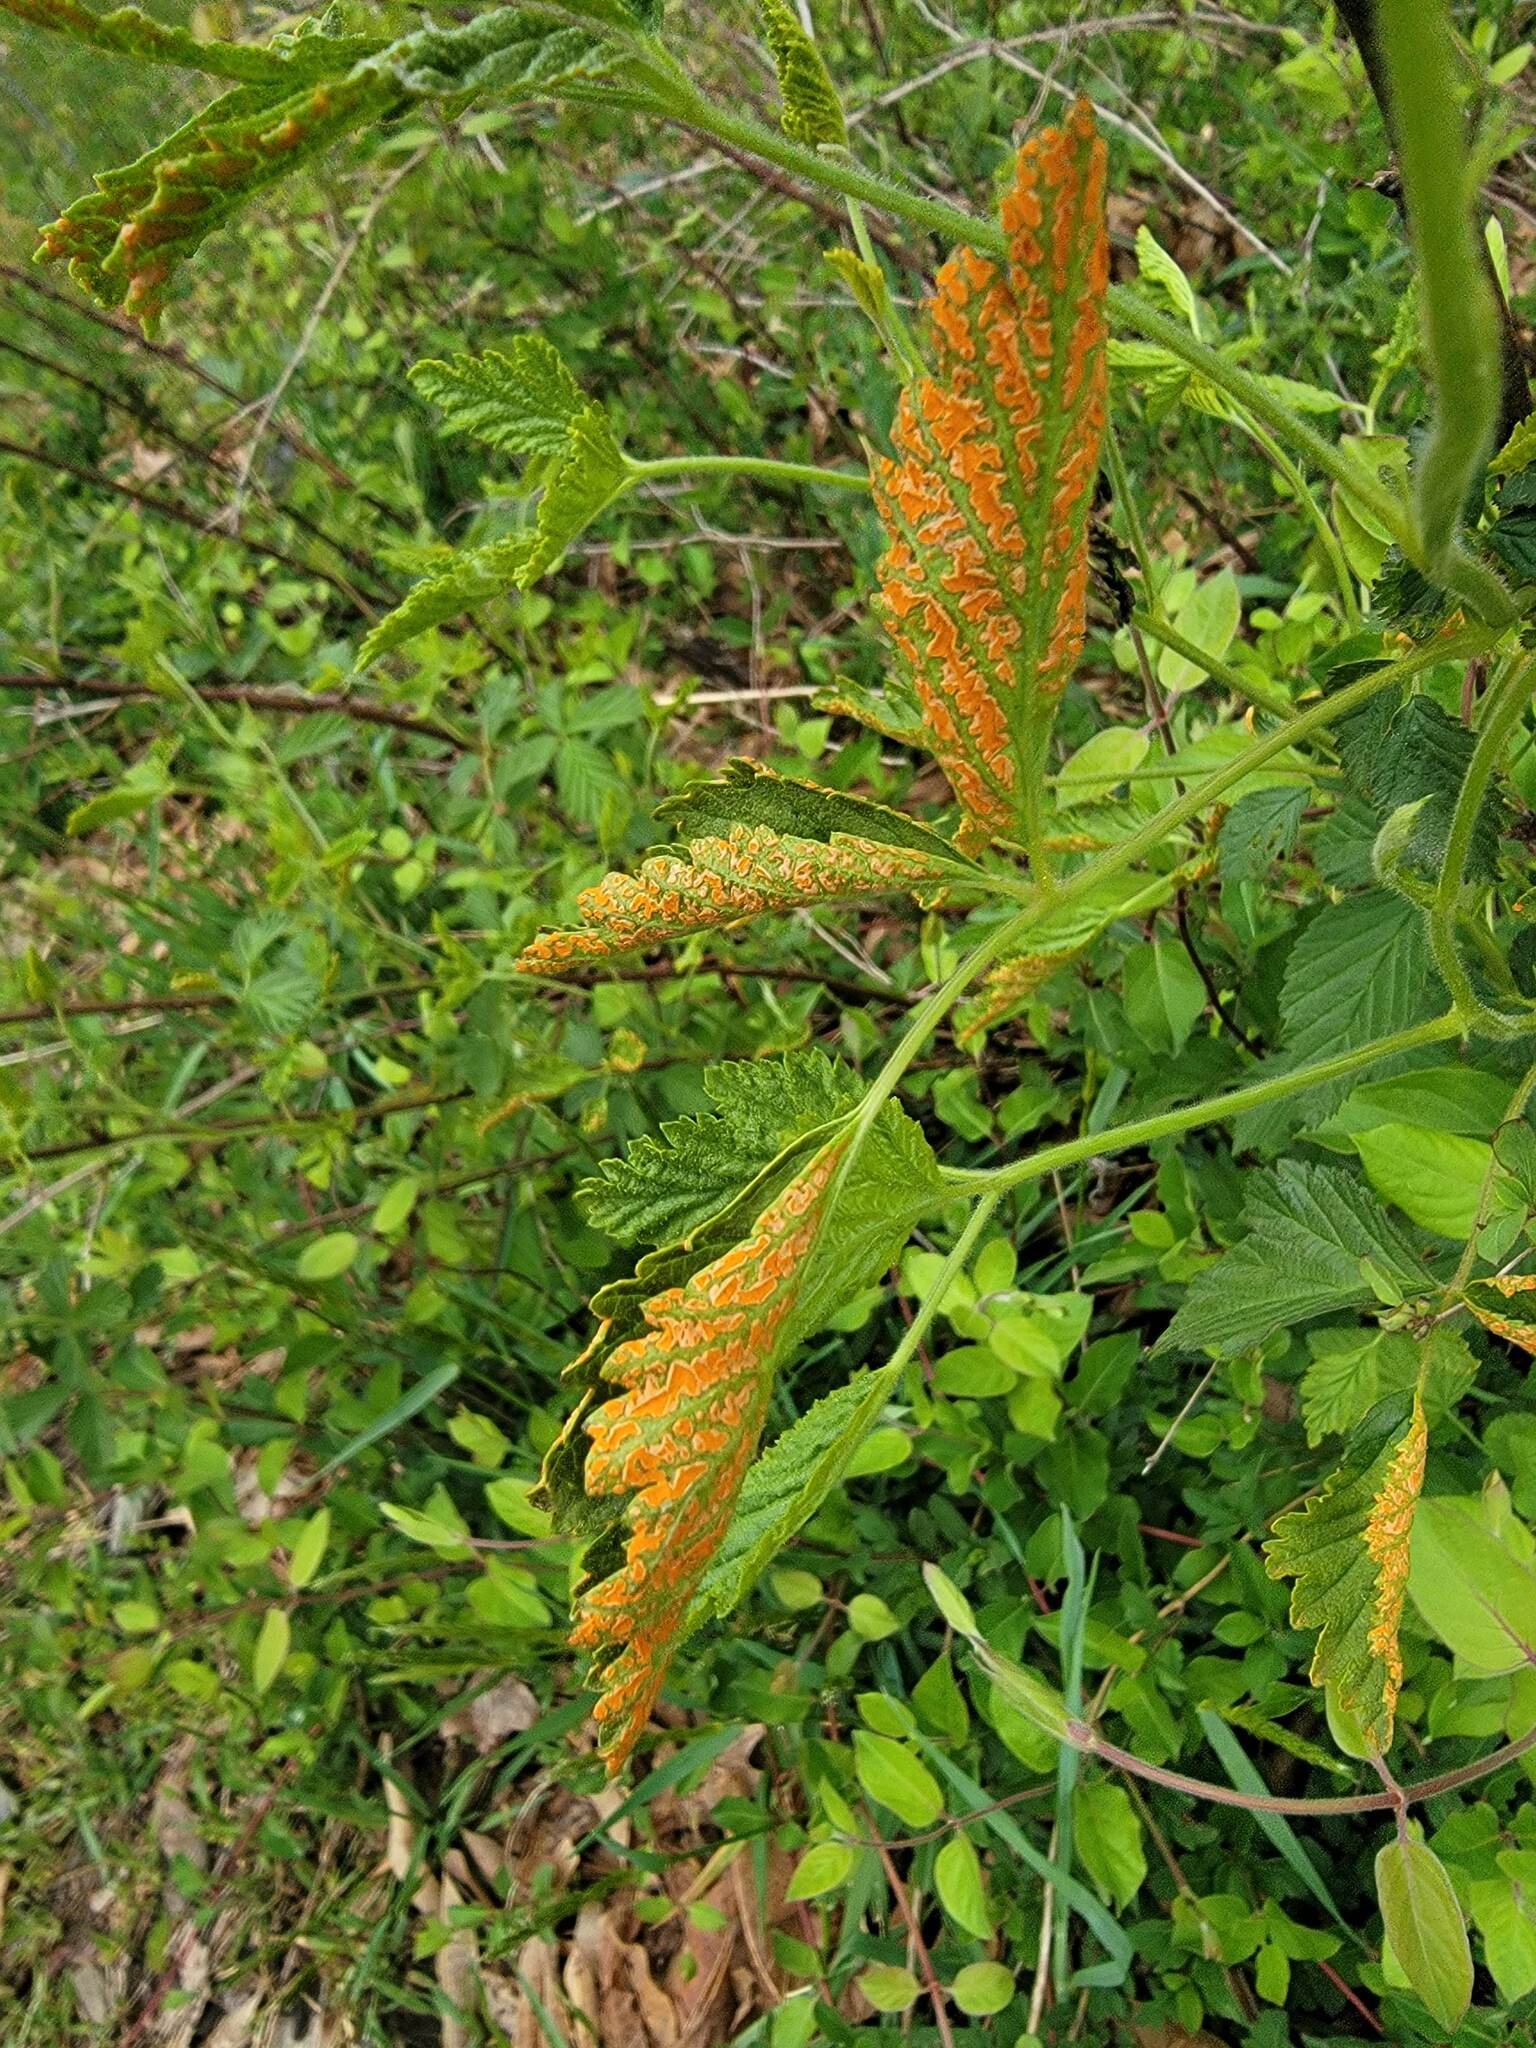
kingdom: Fungi
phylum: Basidiomycota
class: Pucciniomycetes
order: Pucciniales
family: Phragmidiaceae
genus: Arthuriomyces
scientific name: Arthuriomyces peckianus
